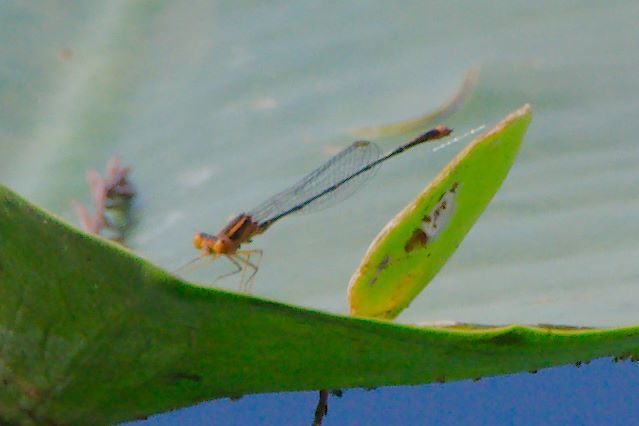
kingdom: Animalia
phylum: Arthropoda
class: Insecta
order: Odonata
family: Coenagrionidae
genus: Enallagma
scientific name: Enallagma pollutum
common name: Florida bluet
